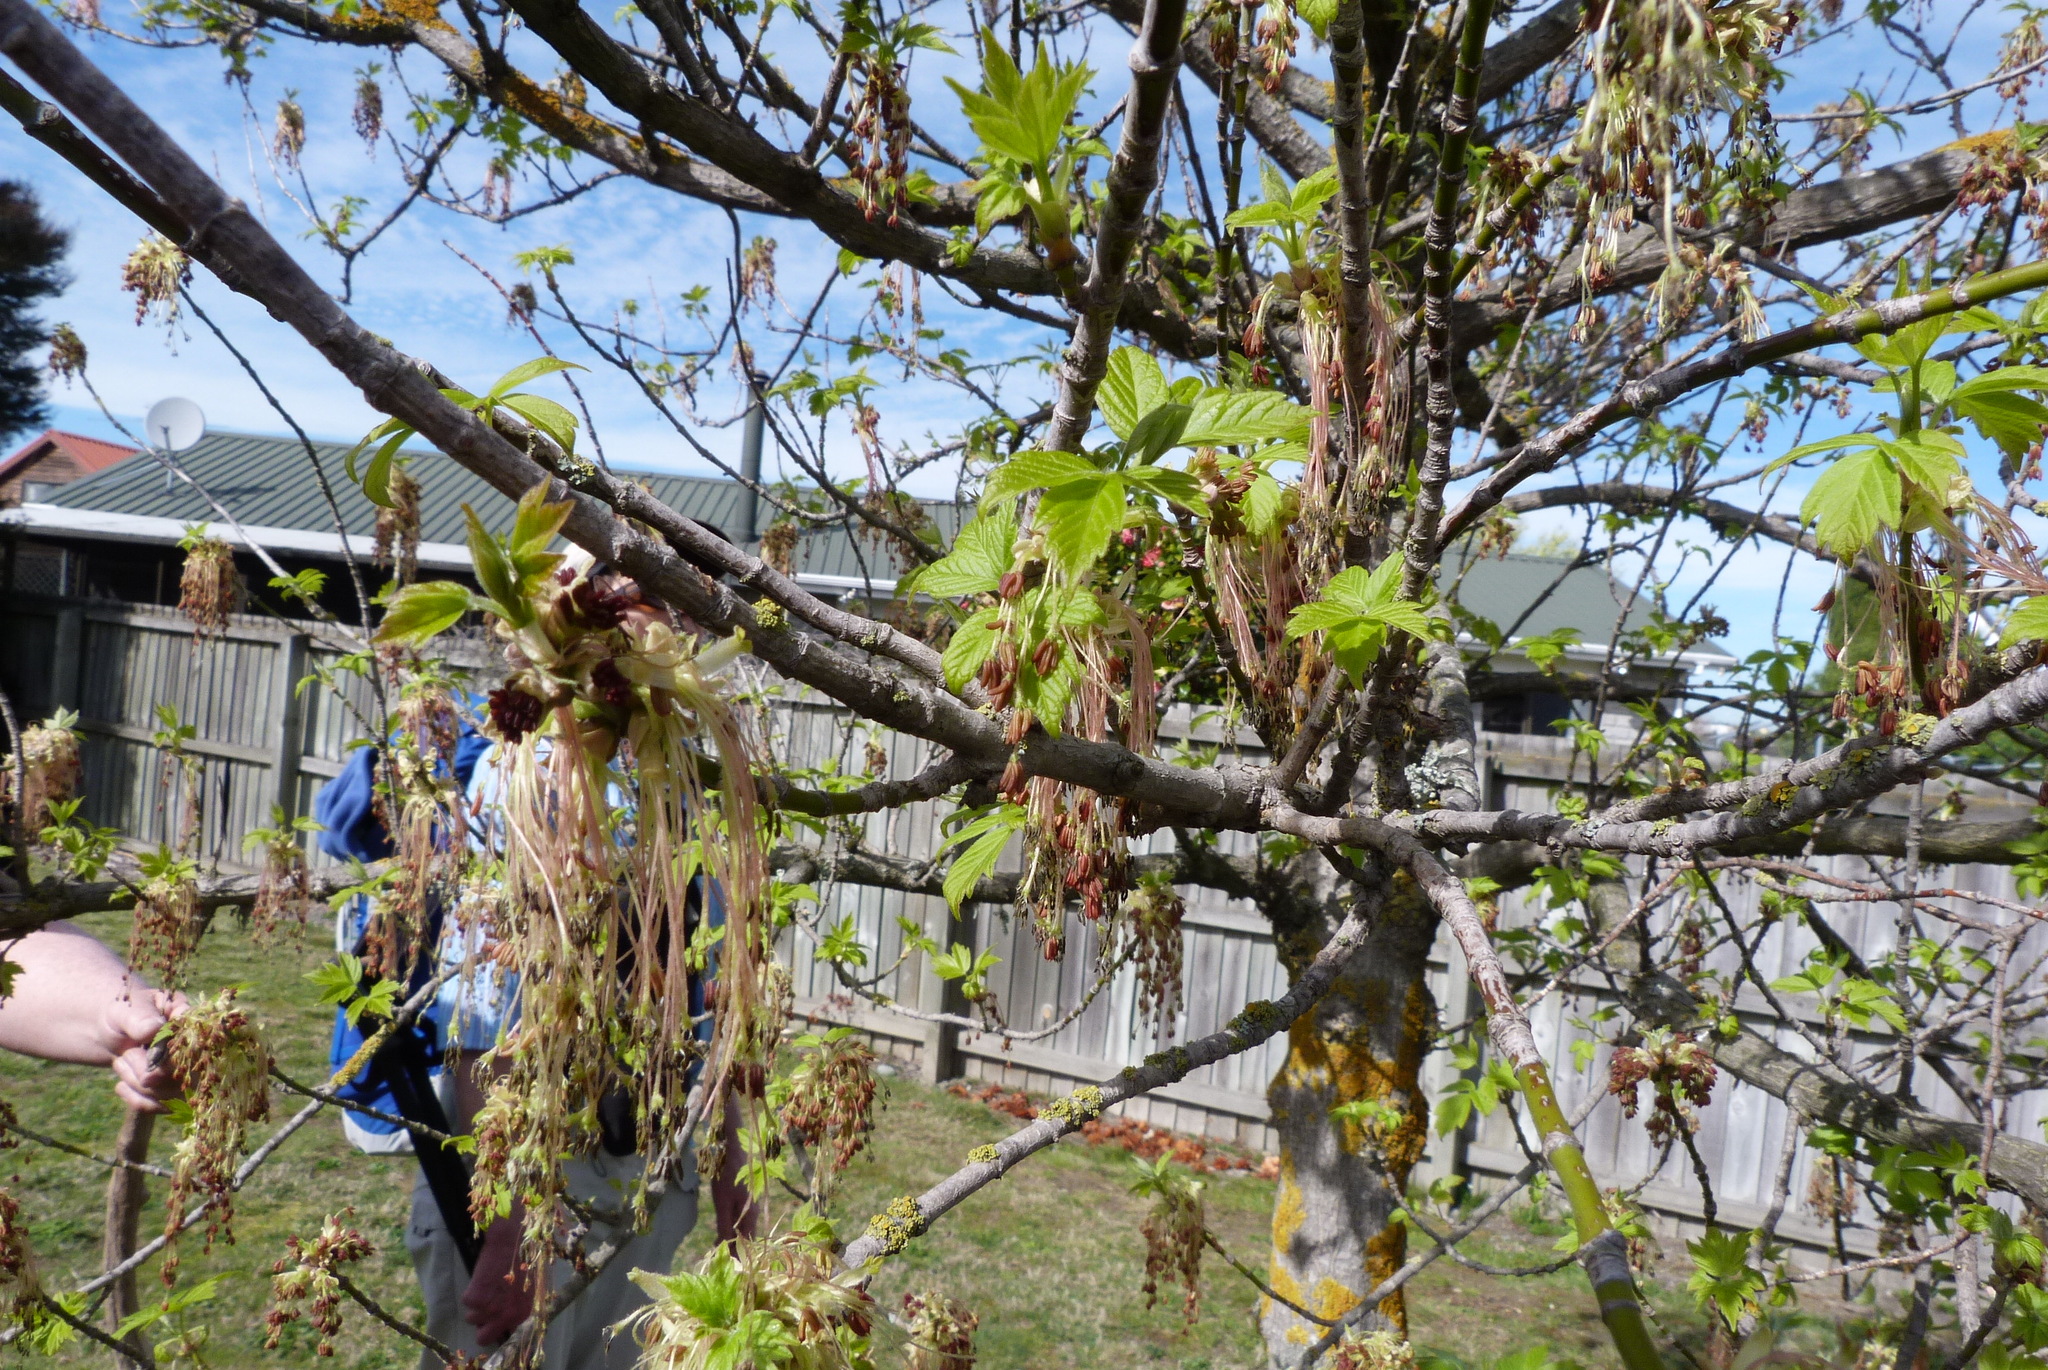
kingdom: Plantae
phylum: Tracheophyta
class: Magnoliopsida
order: Sapindales
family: Sapindaceae
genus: Acer
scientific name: Acer negundo
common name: Ashleaf maple
